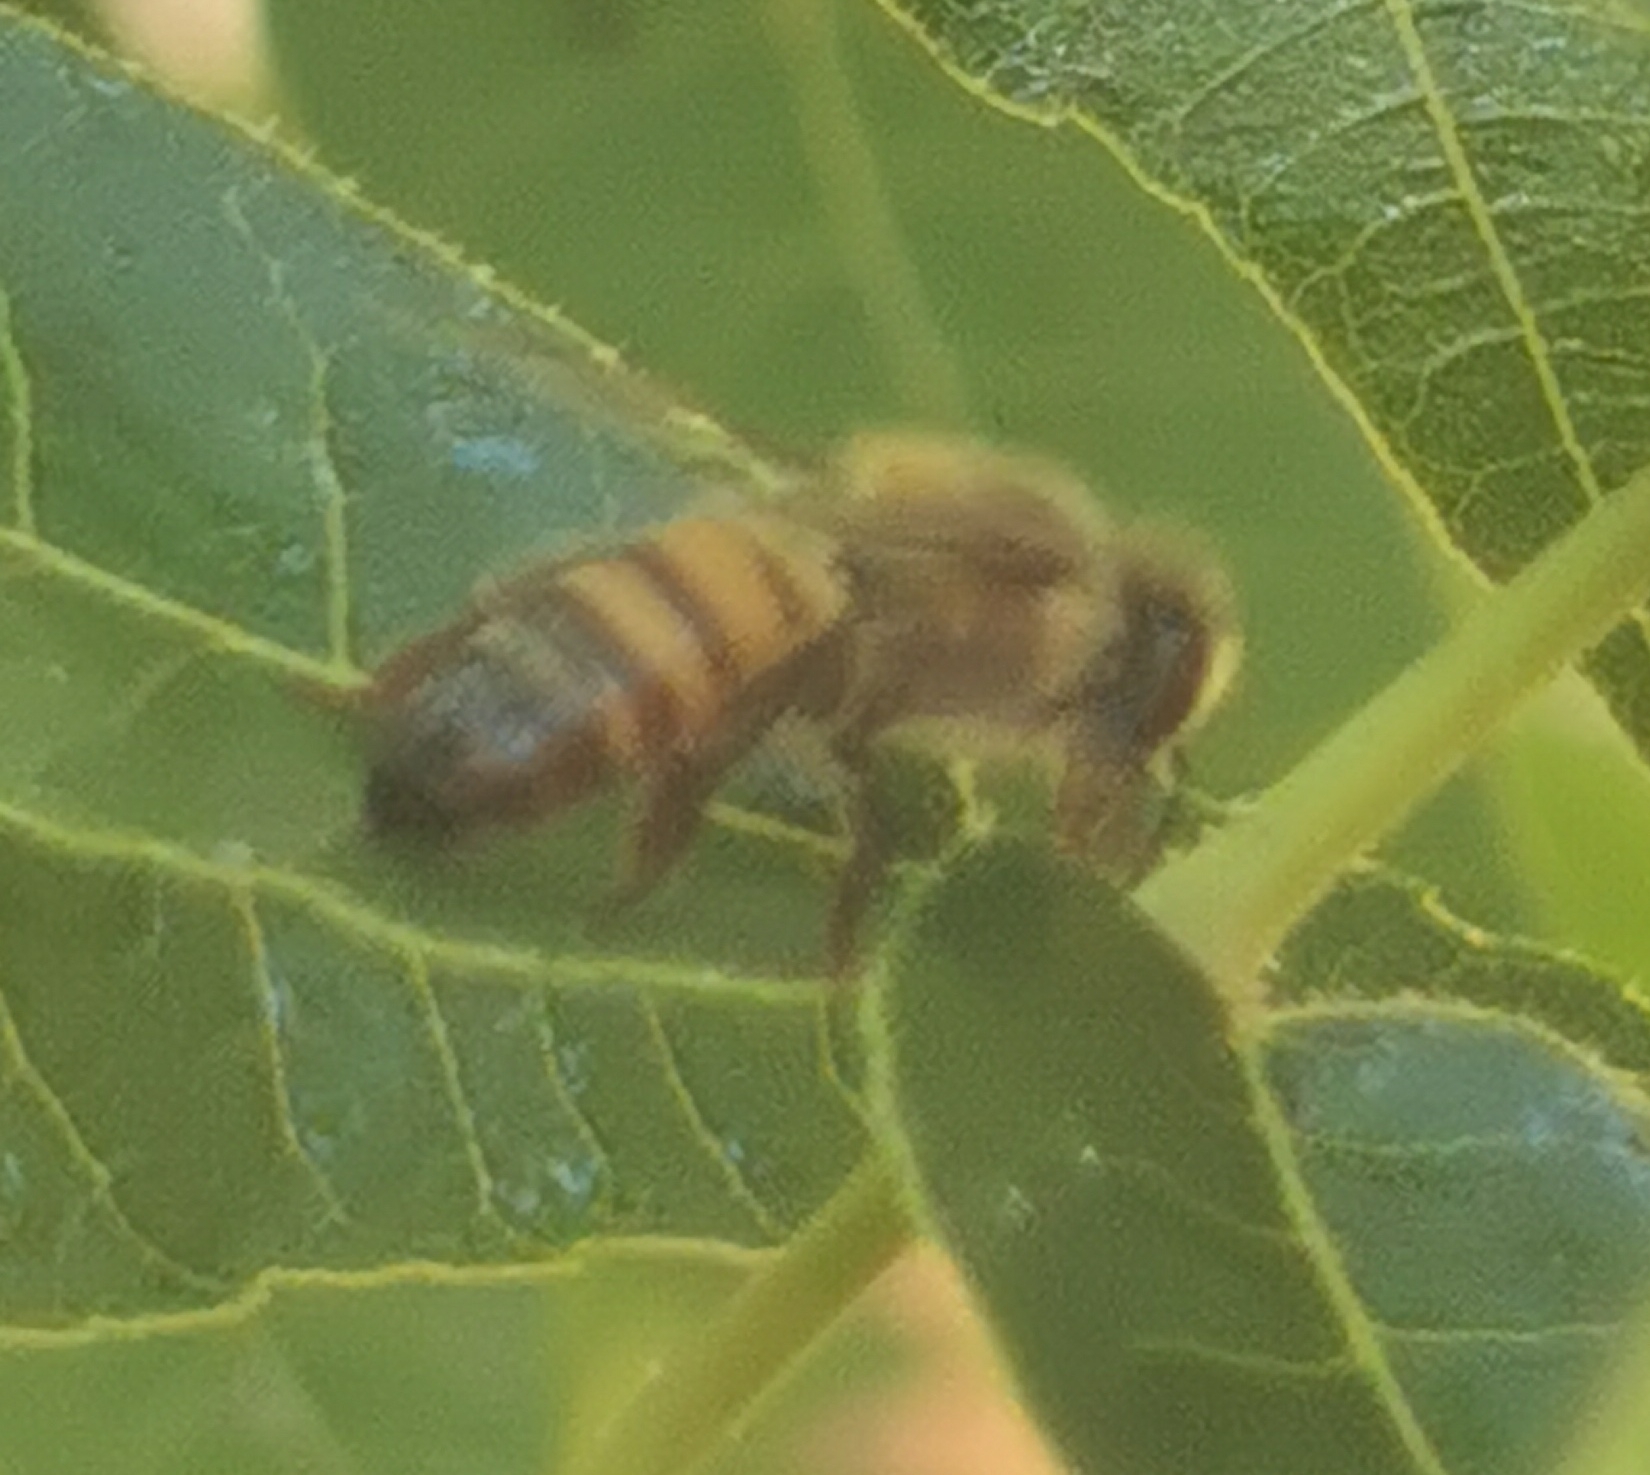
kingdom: Animalia
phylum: Arthropoda
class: Insecta
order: Hymenoptera
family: Apidae
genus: Apis
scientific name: Apis mellifera
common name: Honey bee
